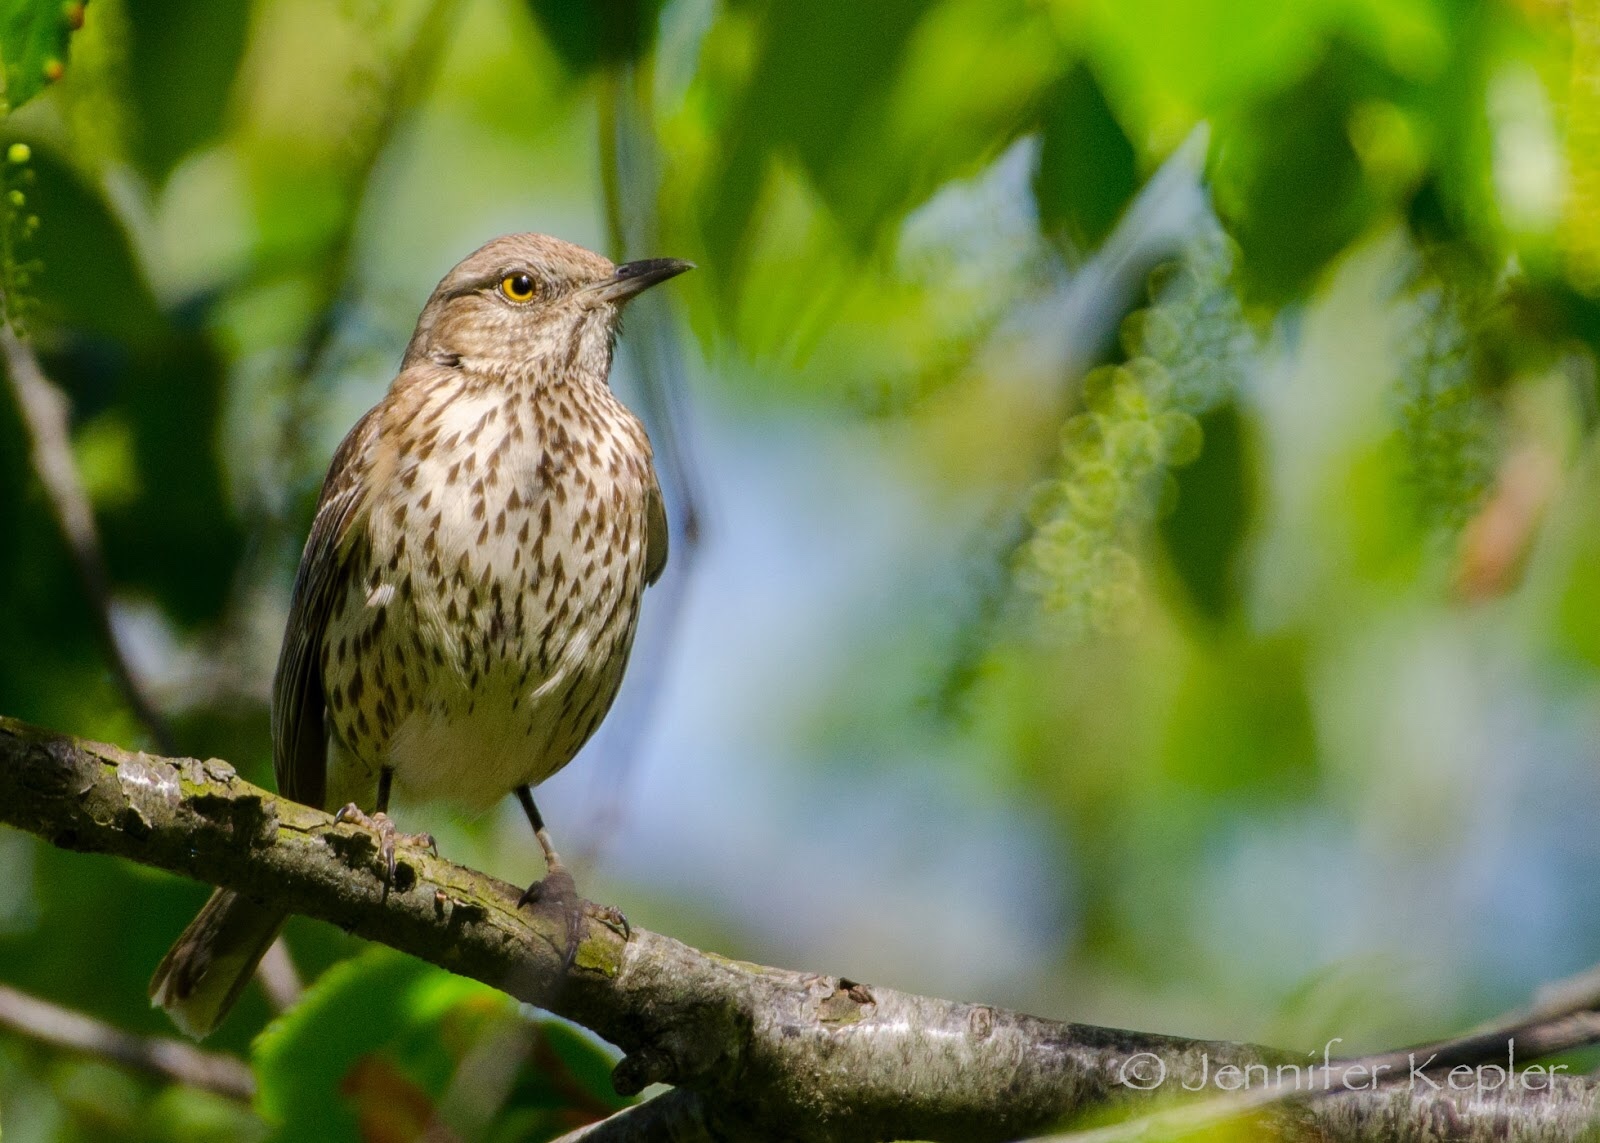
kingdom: Animalia
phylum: Chordata
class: Aves
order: Passeriformes
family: Mimidae
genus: Oreoscoptes
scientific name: Oreoscoptes montanus
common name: Sage thrasher
